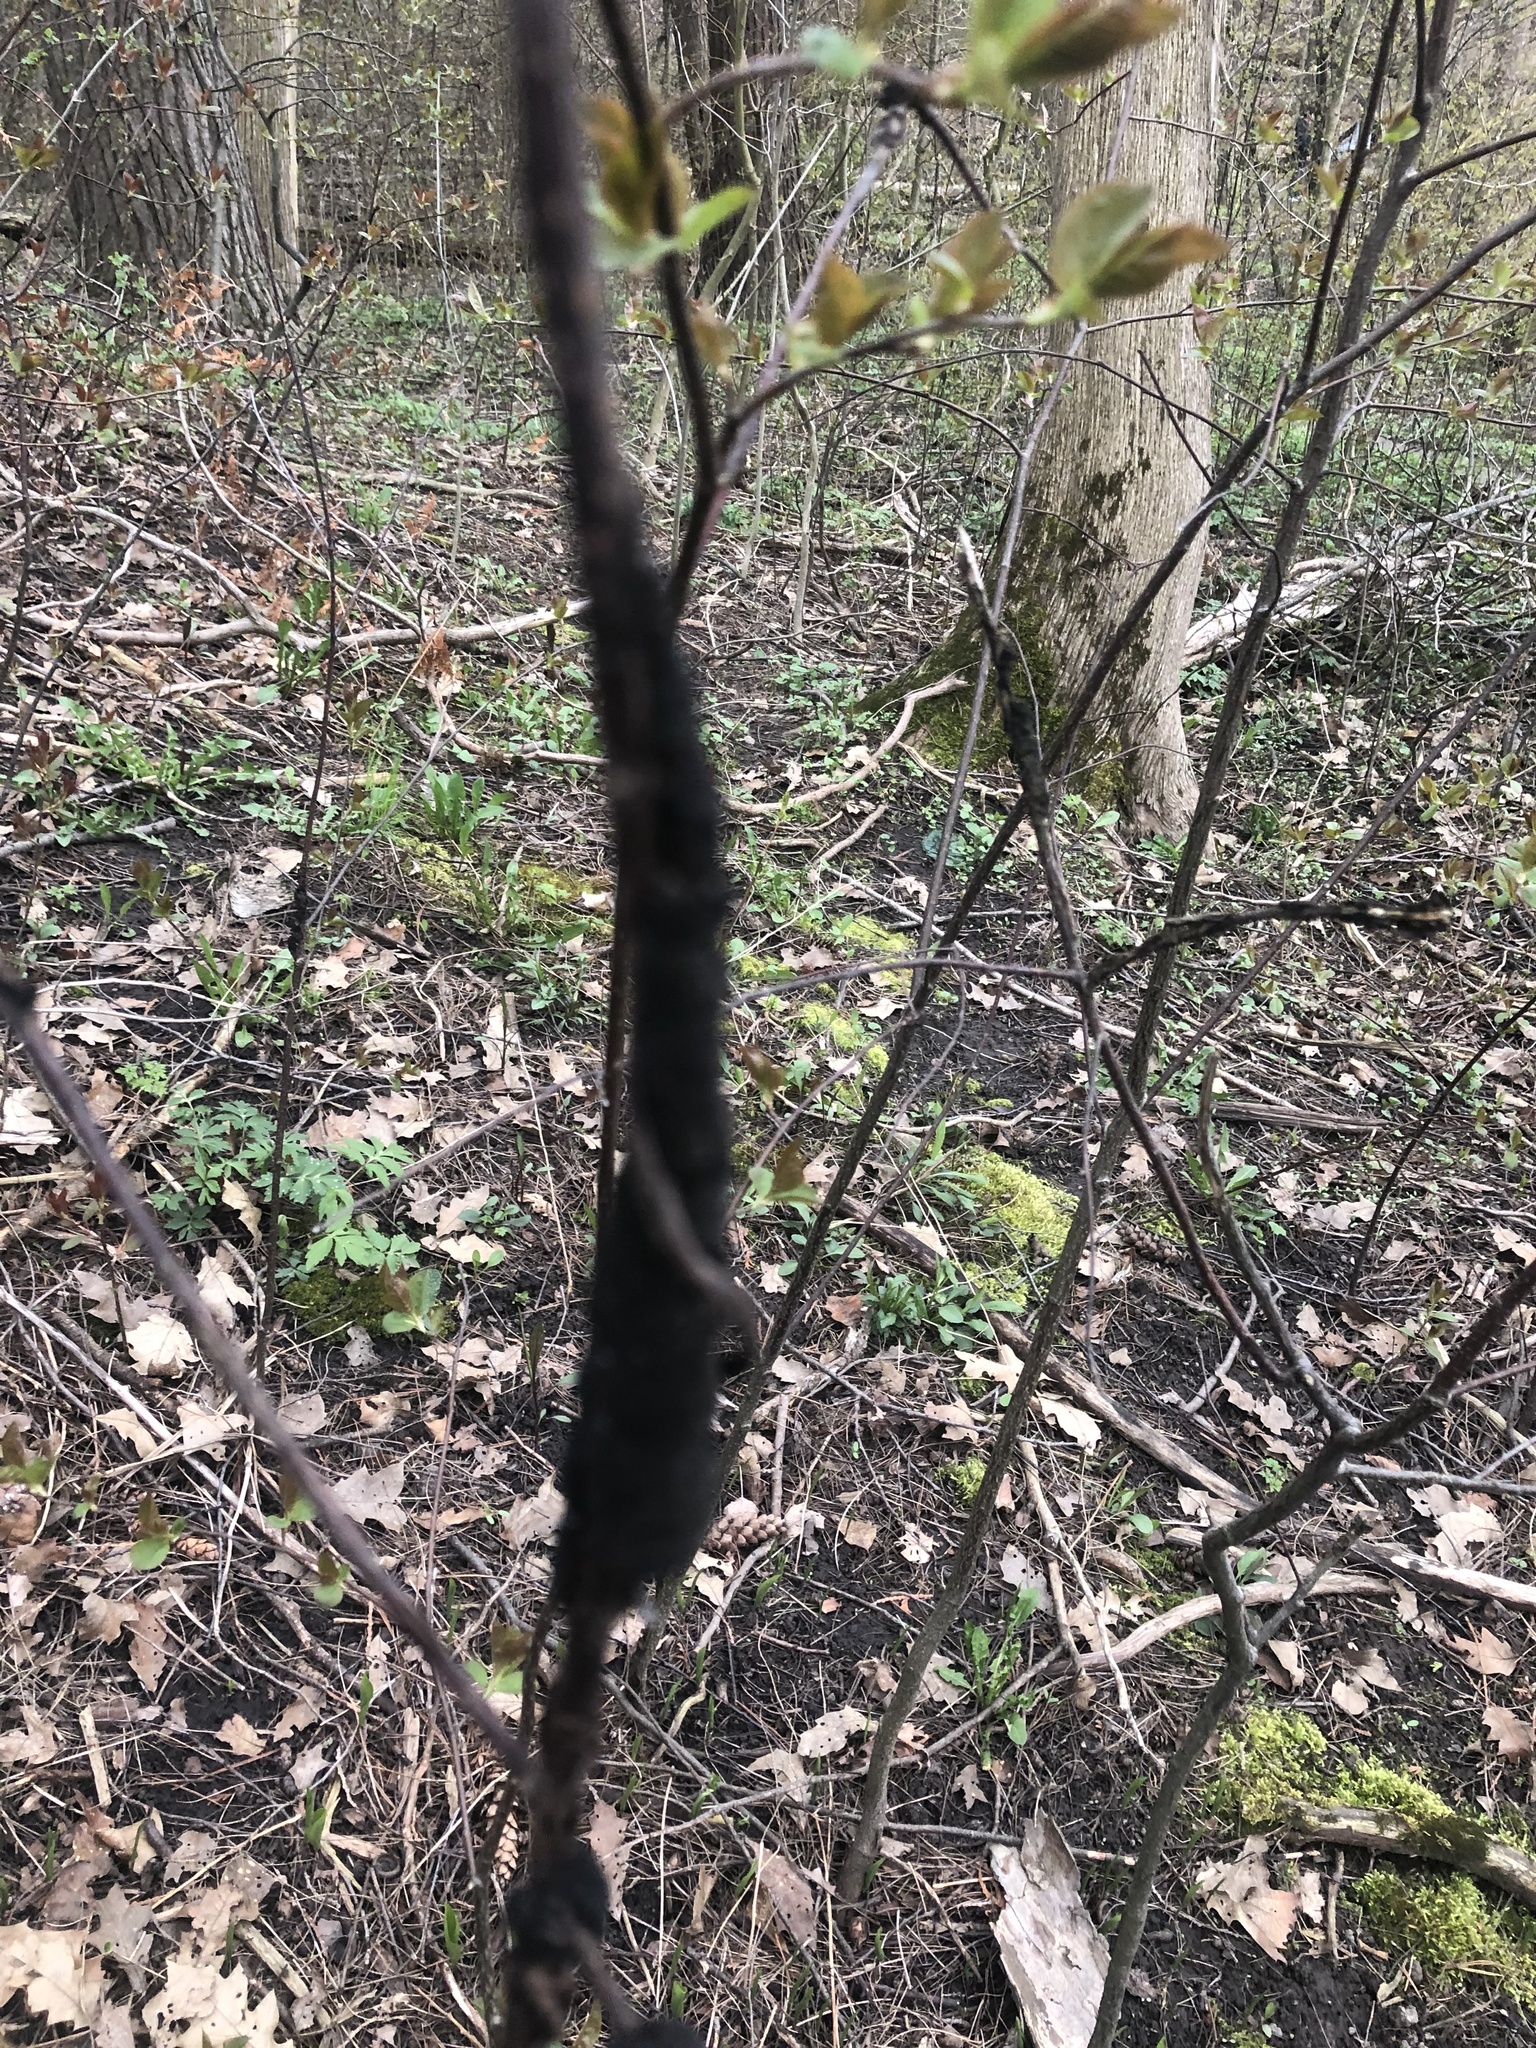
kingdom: Fungi
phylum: Ascomycota
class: Dothideomycetes
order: Venturiales
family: Venturiaceae
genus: Apiosporina
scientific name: Apiosporina morbosa
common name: Black knot
